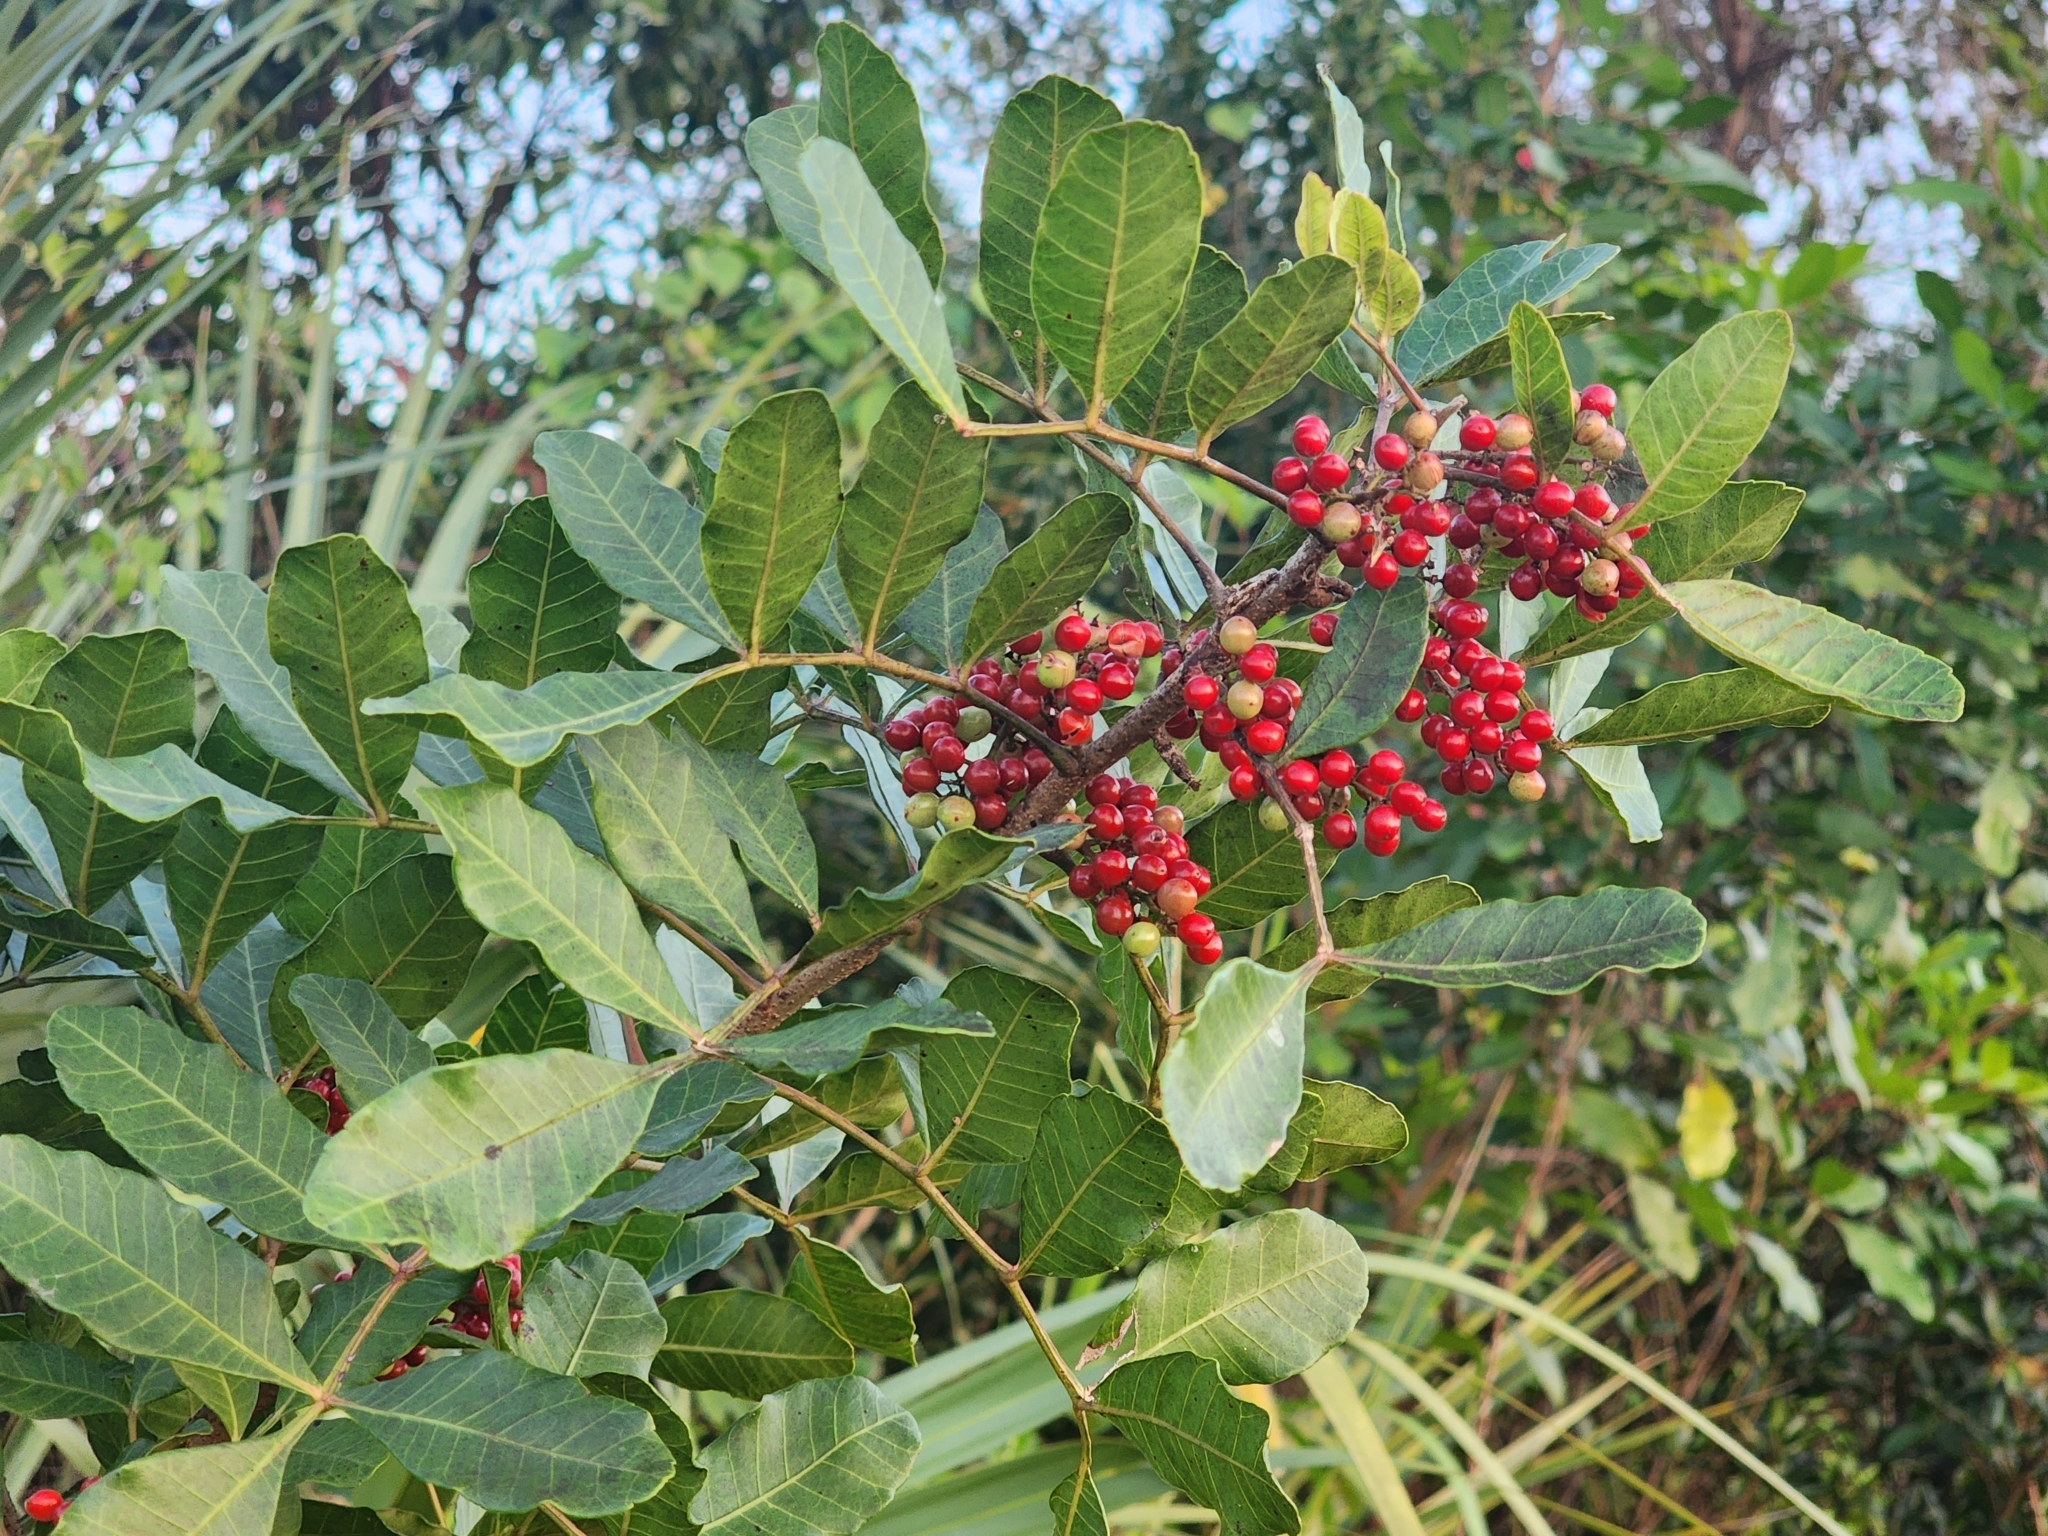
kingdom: Plantae
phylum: Tracheophyta
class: Magnoliopsida
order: Sapindales
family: Anacardiaceae
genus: Schinus
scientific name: Schinus terebinthifolia
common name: Brazilian peppertree
